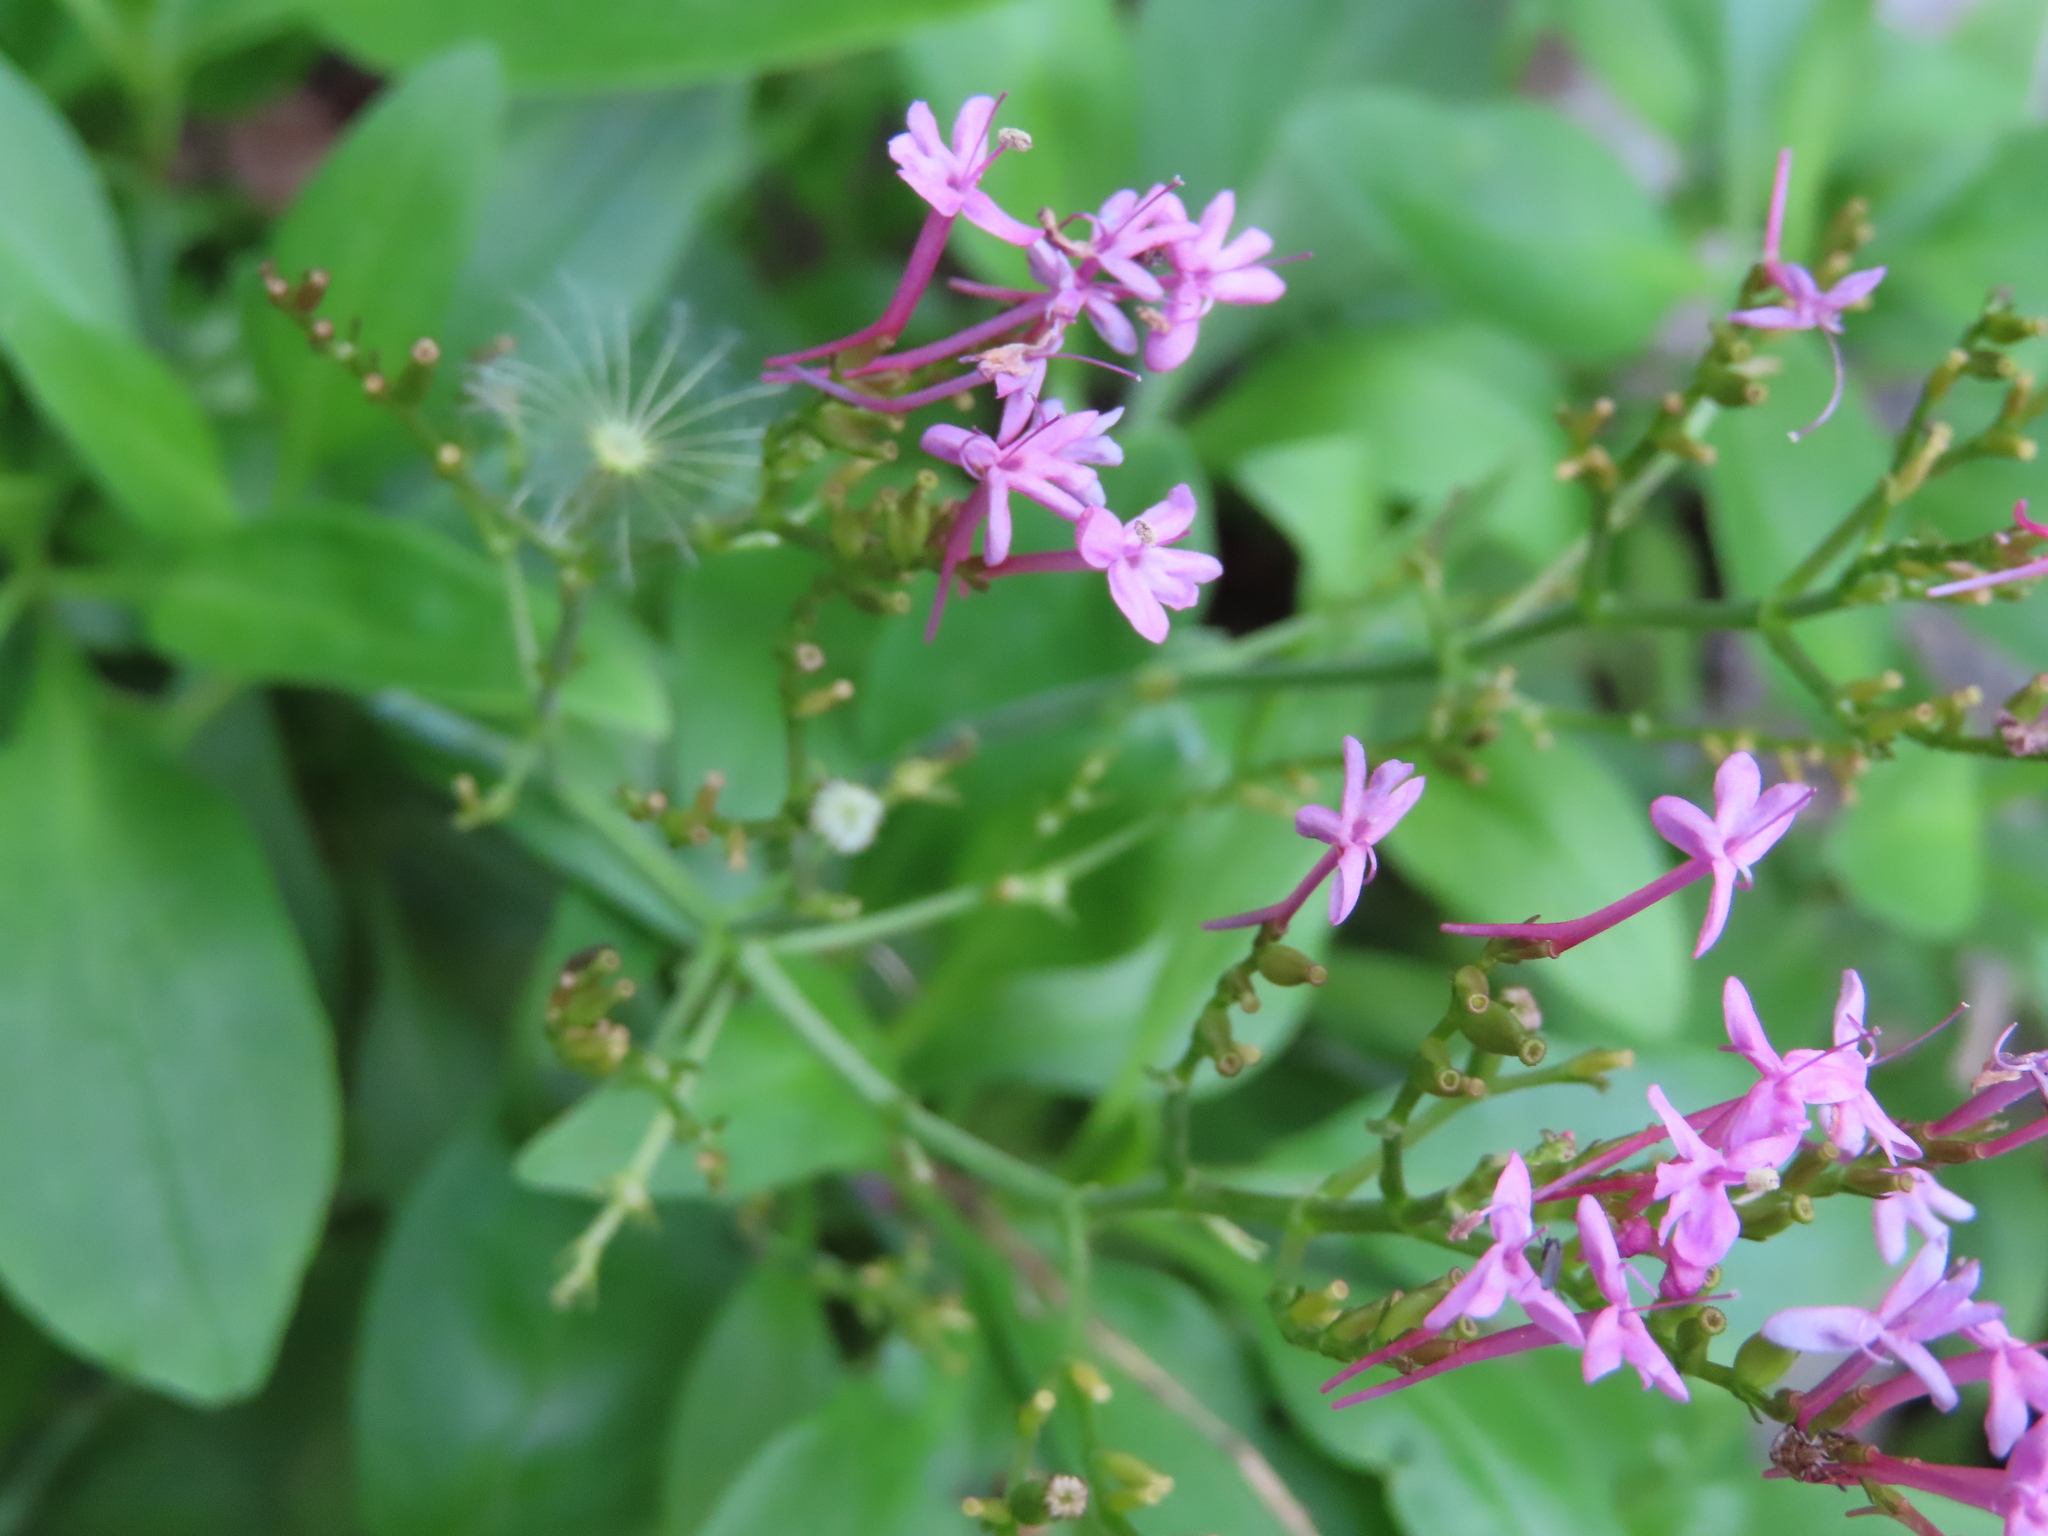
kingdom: Plantae
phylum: Tracheophyta
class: Magnoliopsida
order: Dipsacales
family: Caprifoliaceae
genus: Centranthus
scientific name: Centranthus ruber
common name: Red valerian
